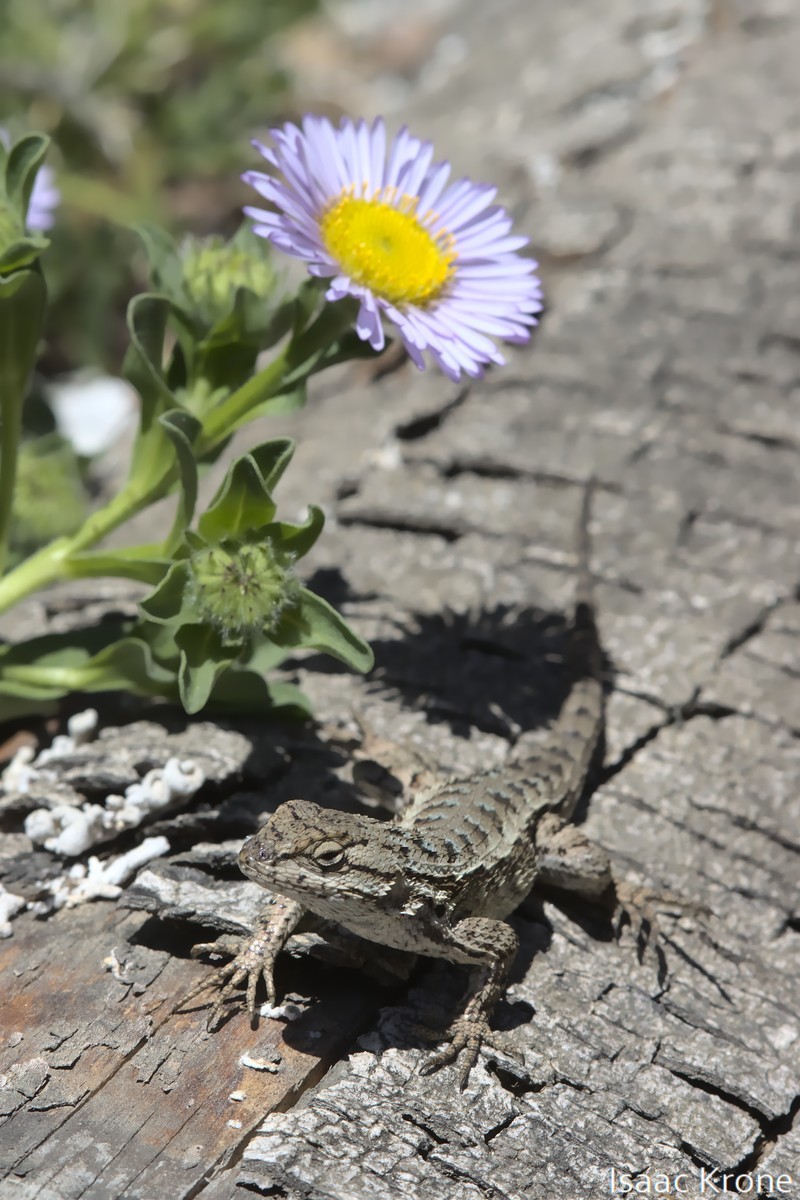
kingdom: Animalia
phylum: Chordata
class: Squamata
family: Phrynosomatidae
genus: Sceloporus
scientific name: Sceloporus occidentalis
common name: Western fence lizard
